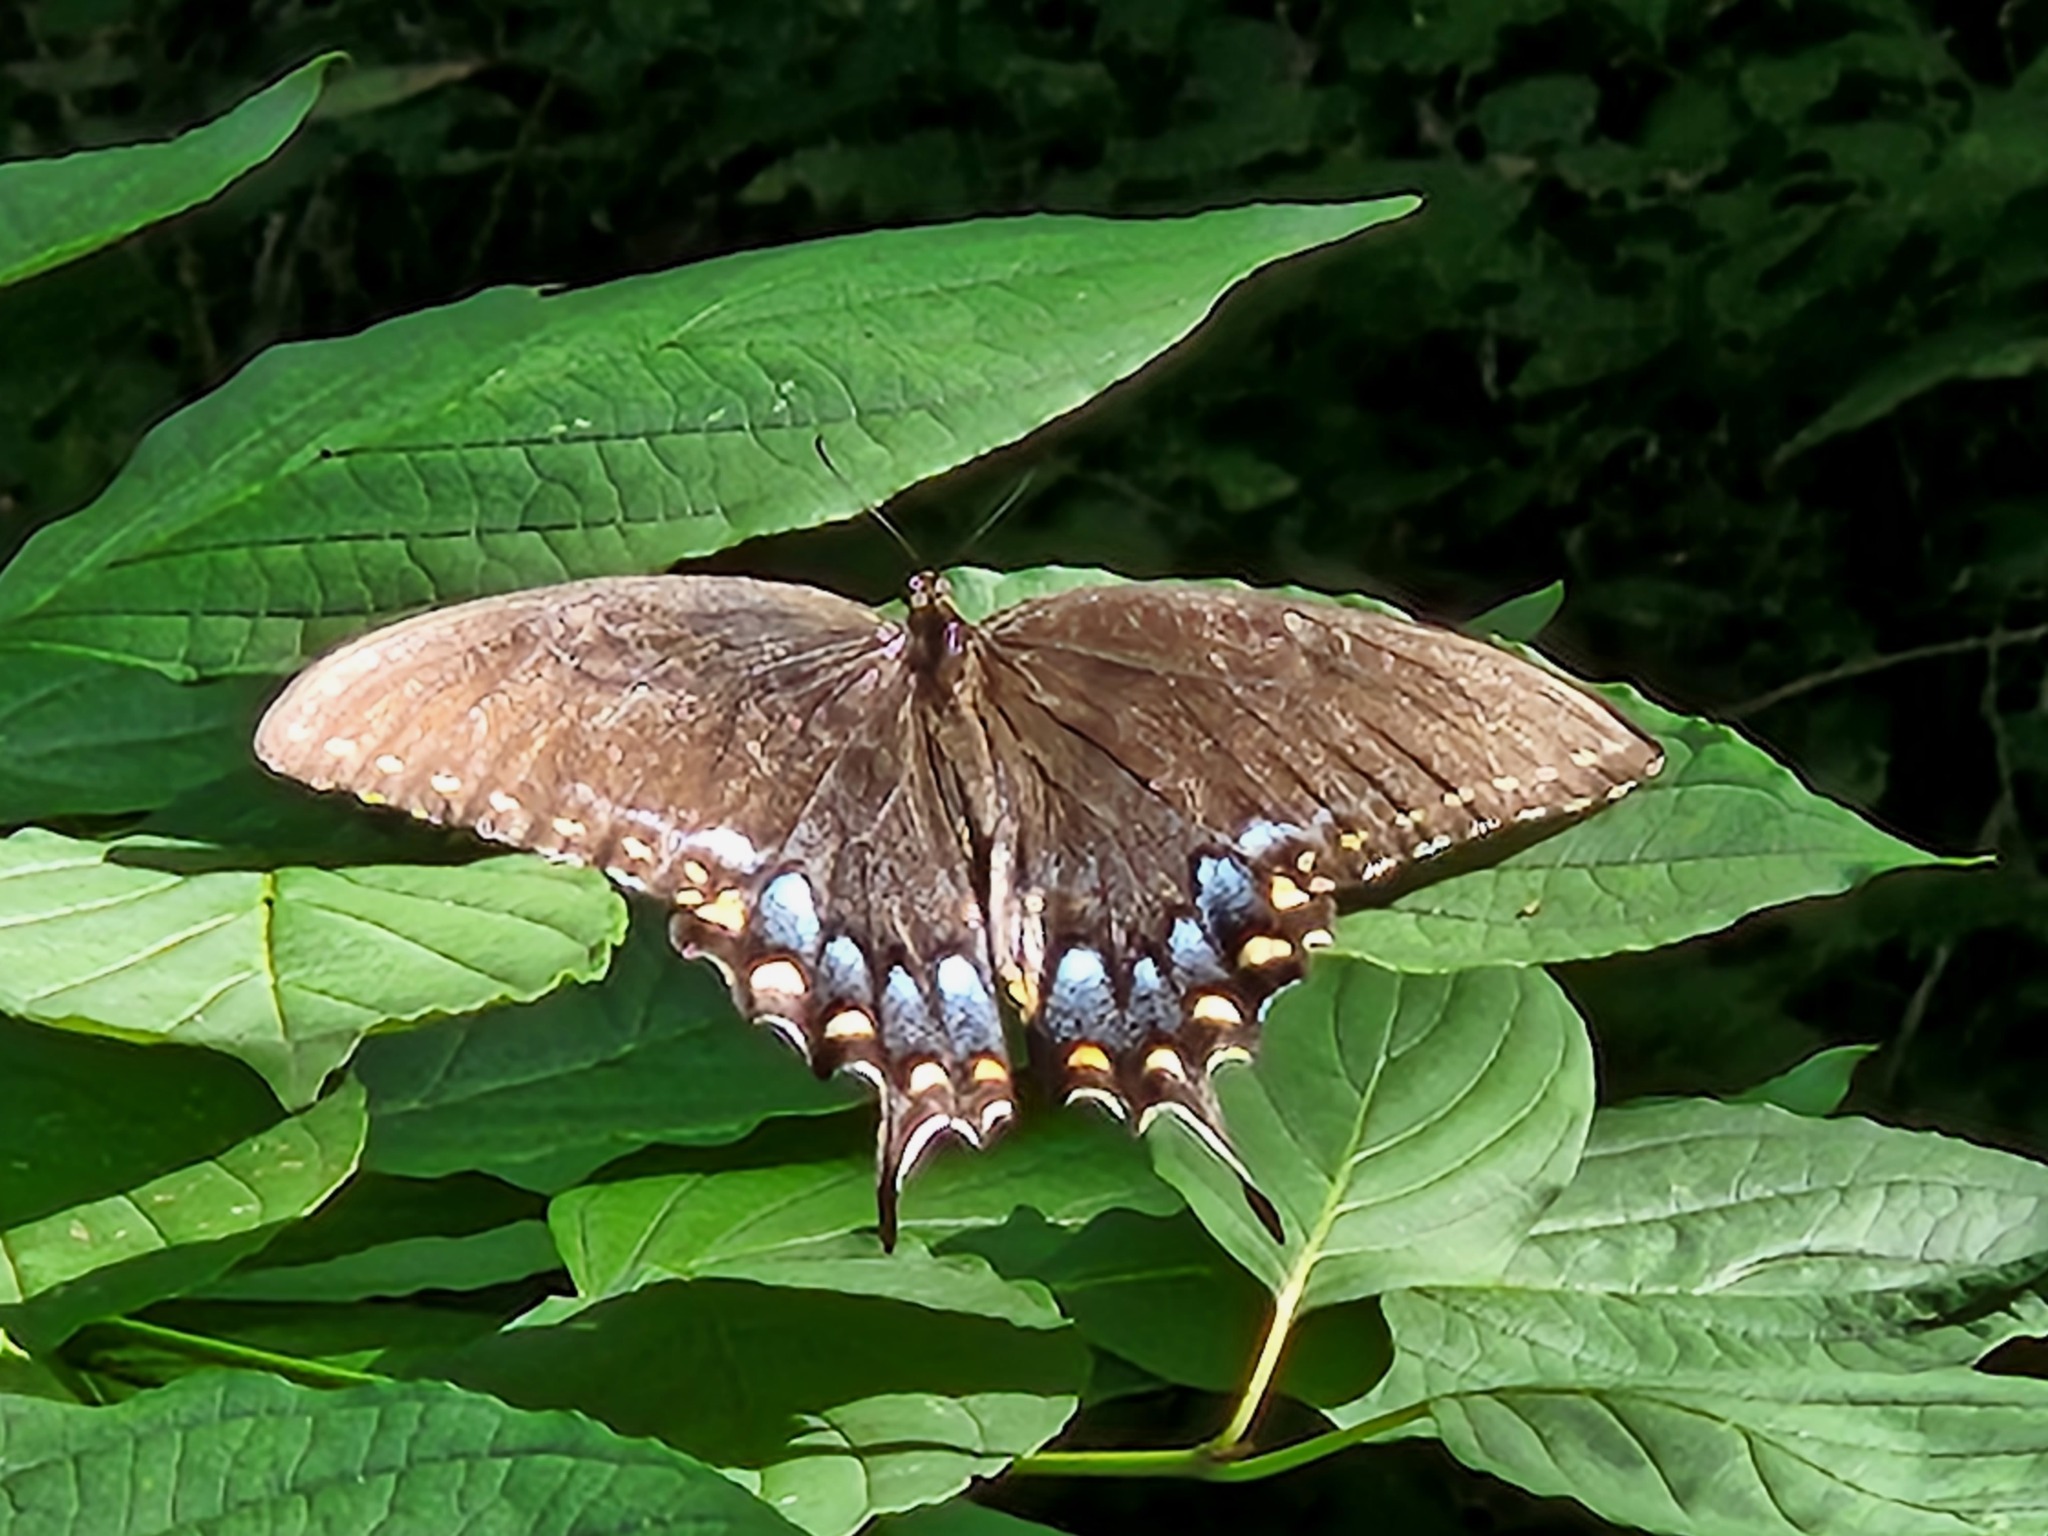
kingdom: Animalia
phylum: Arthropoda
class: Insecta
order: Lepidoptera
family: Papilionidae
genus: Papilio
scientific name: Papilio glaucus
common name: Tiger swallowtail
